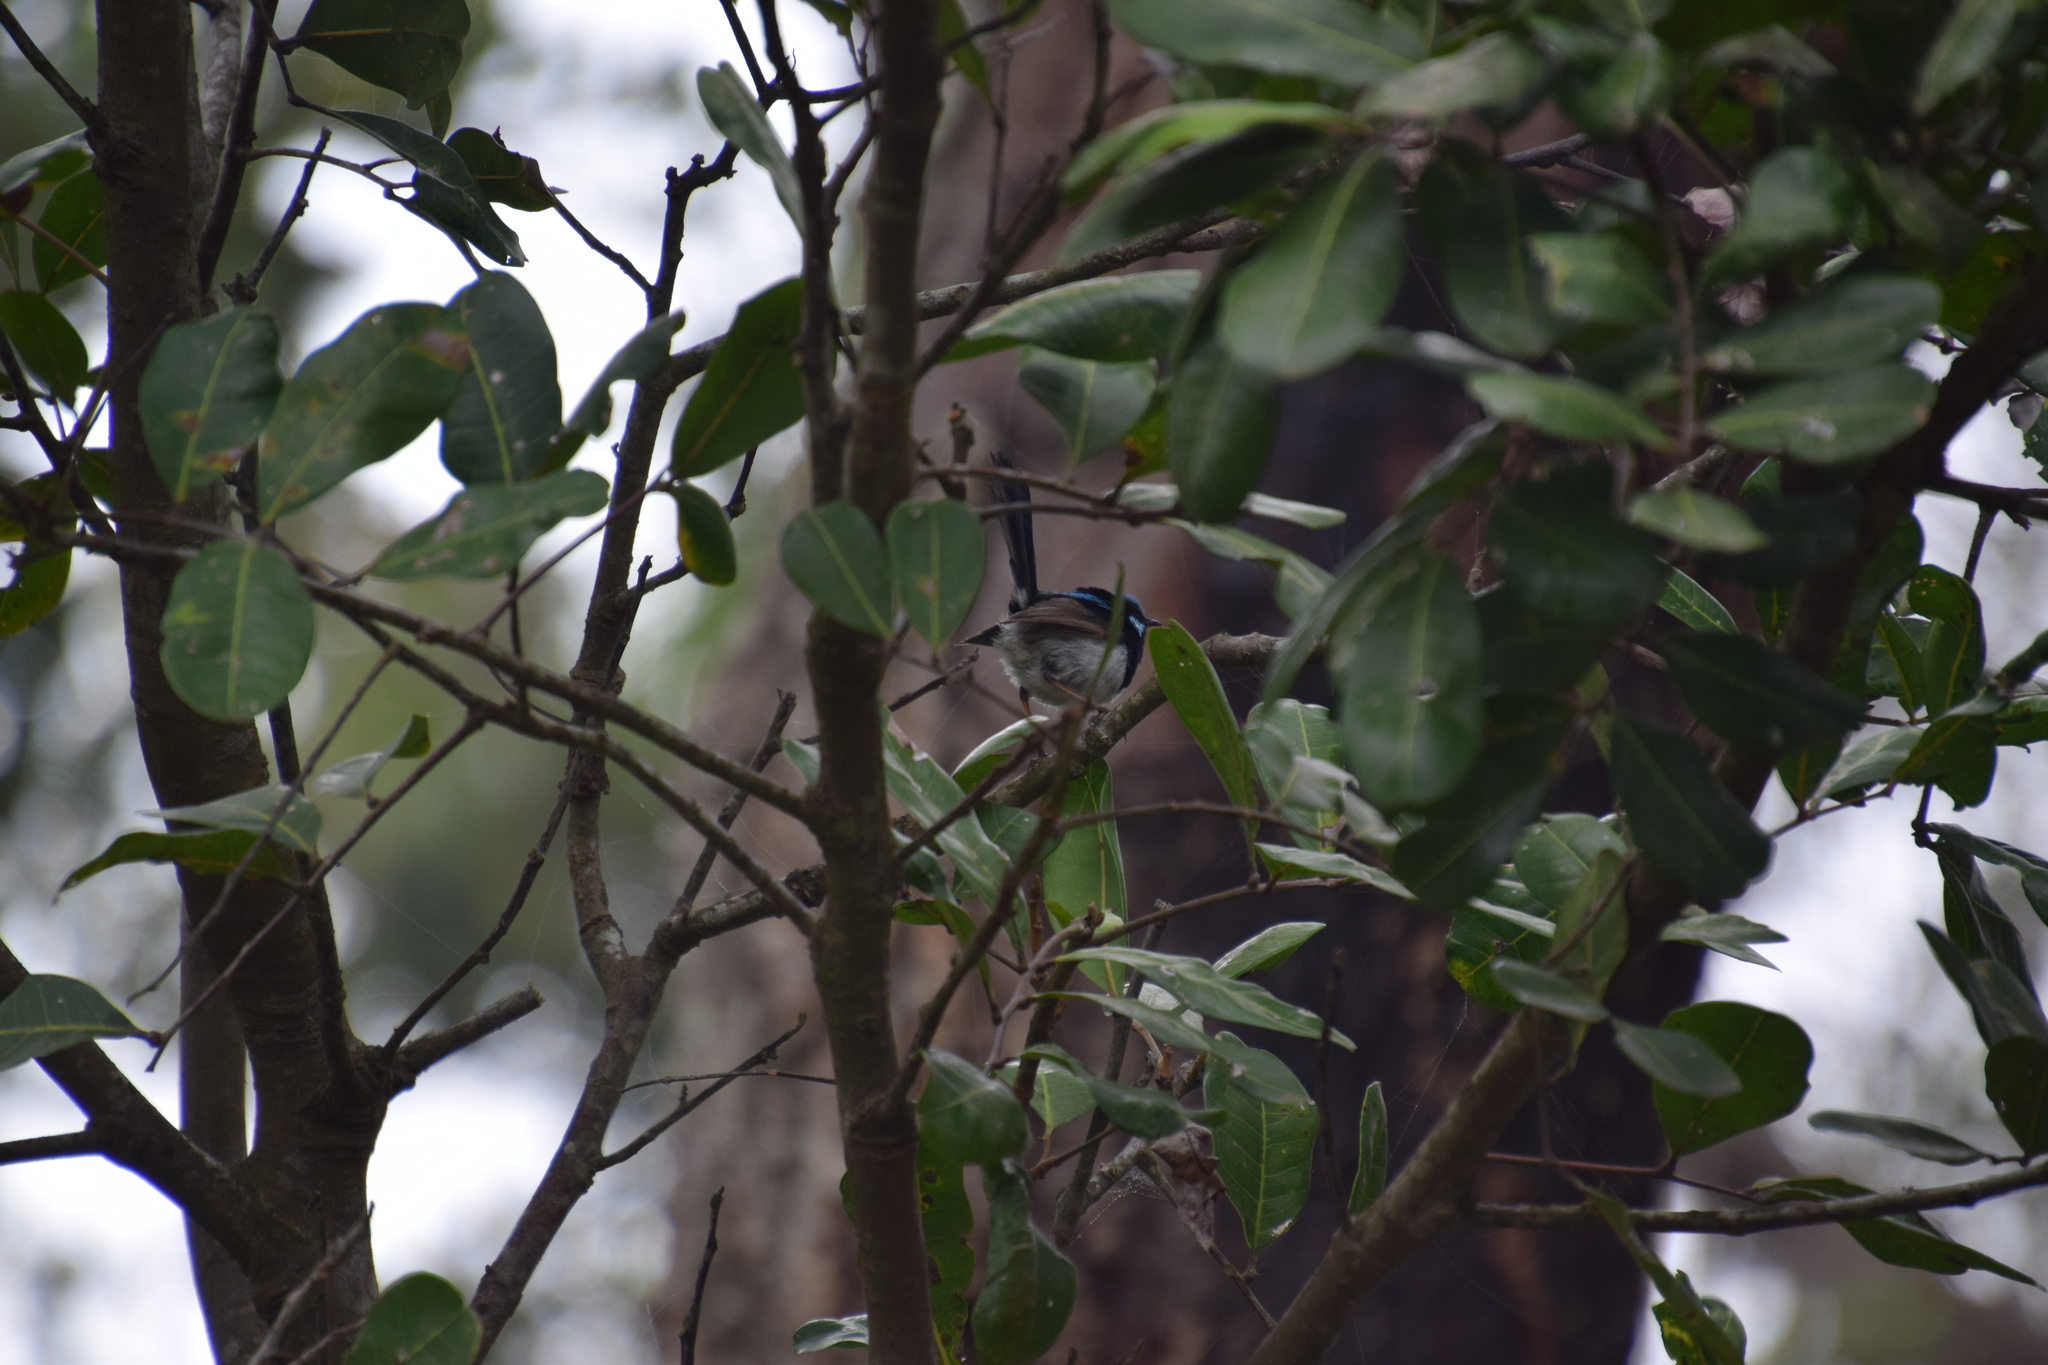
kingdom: Animalia
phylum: Chordata
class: Aves
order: Passeriformes
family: Maluridae
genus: Malurus
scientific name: Malurus cyaneus
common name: Superb fairywren
